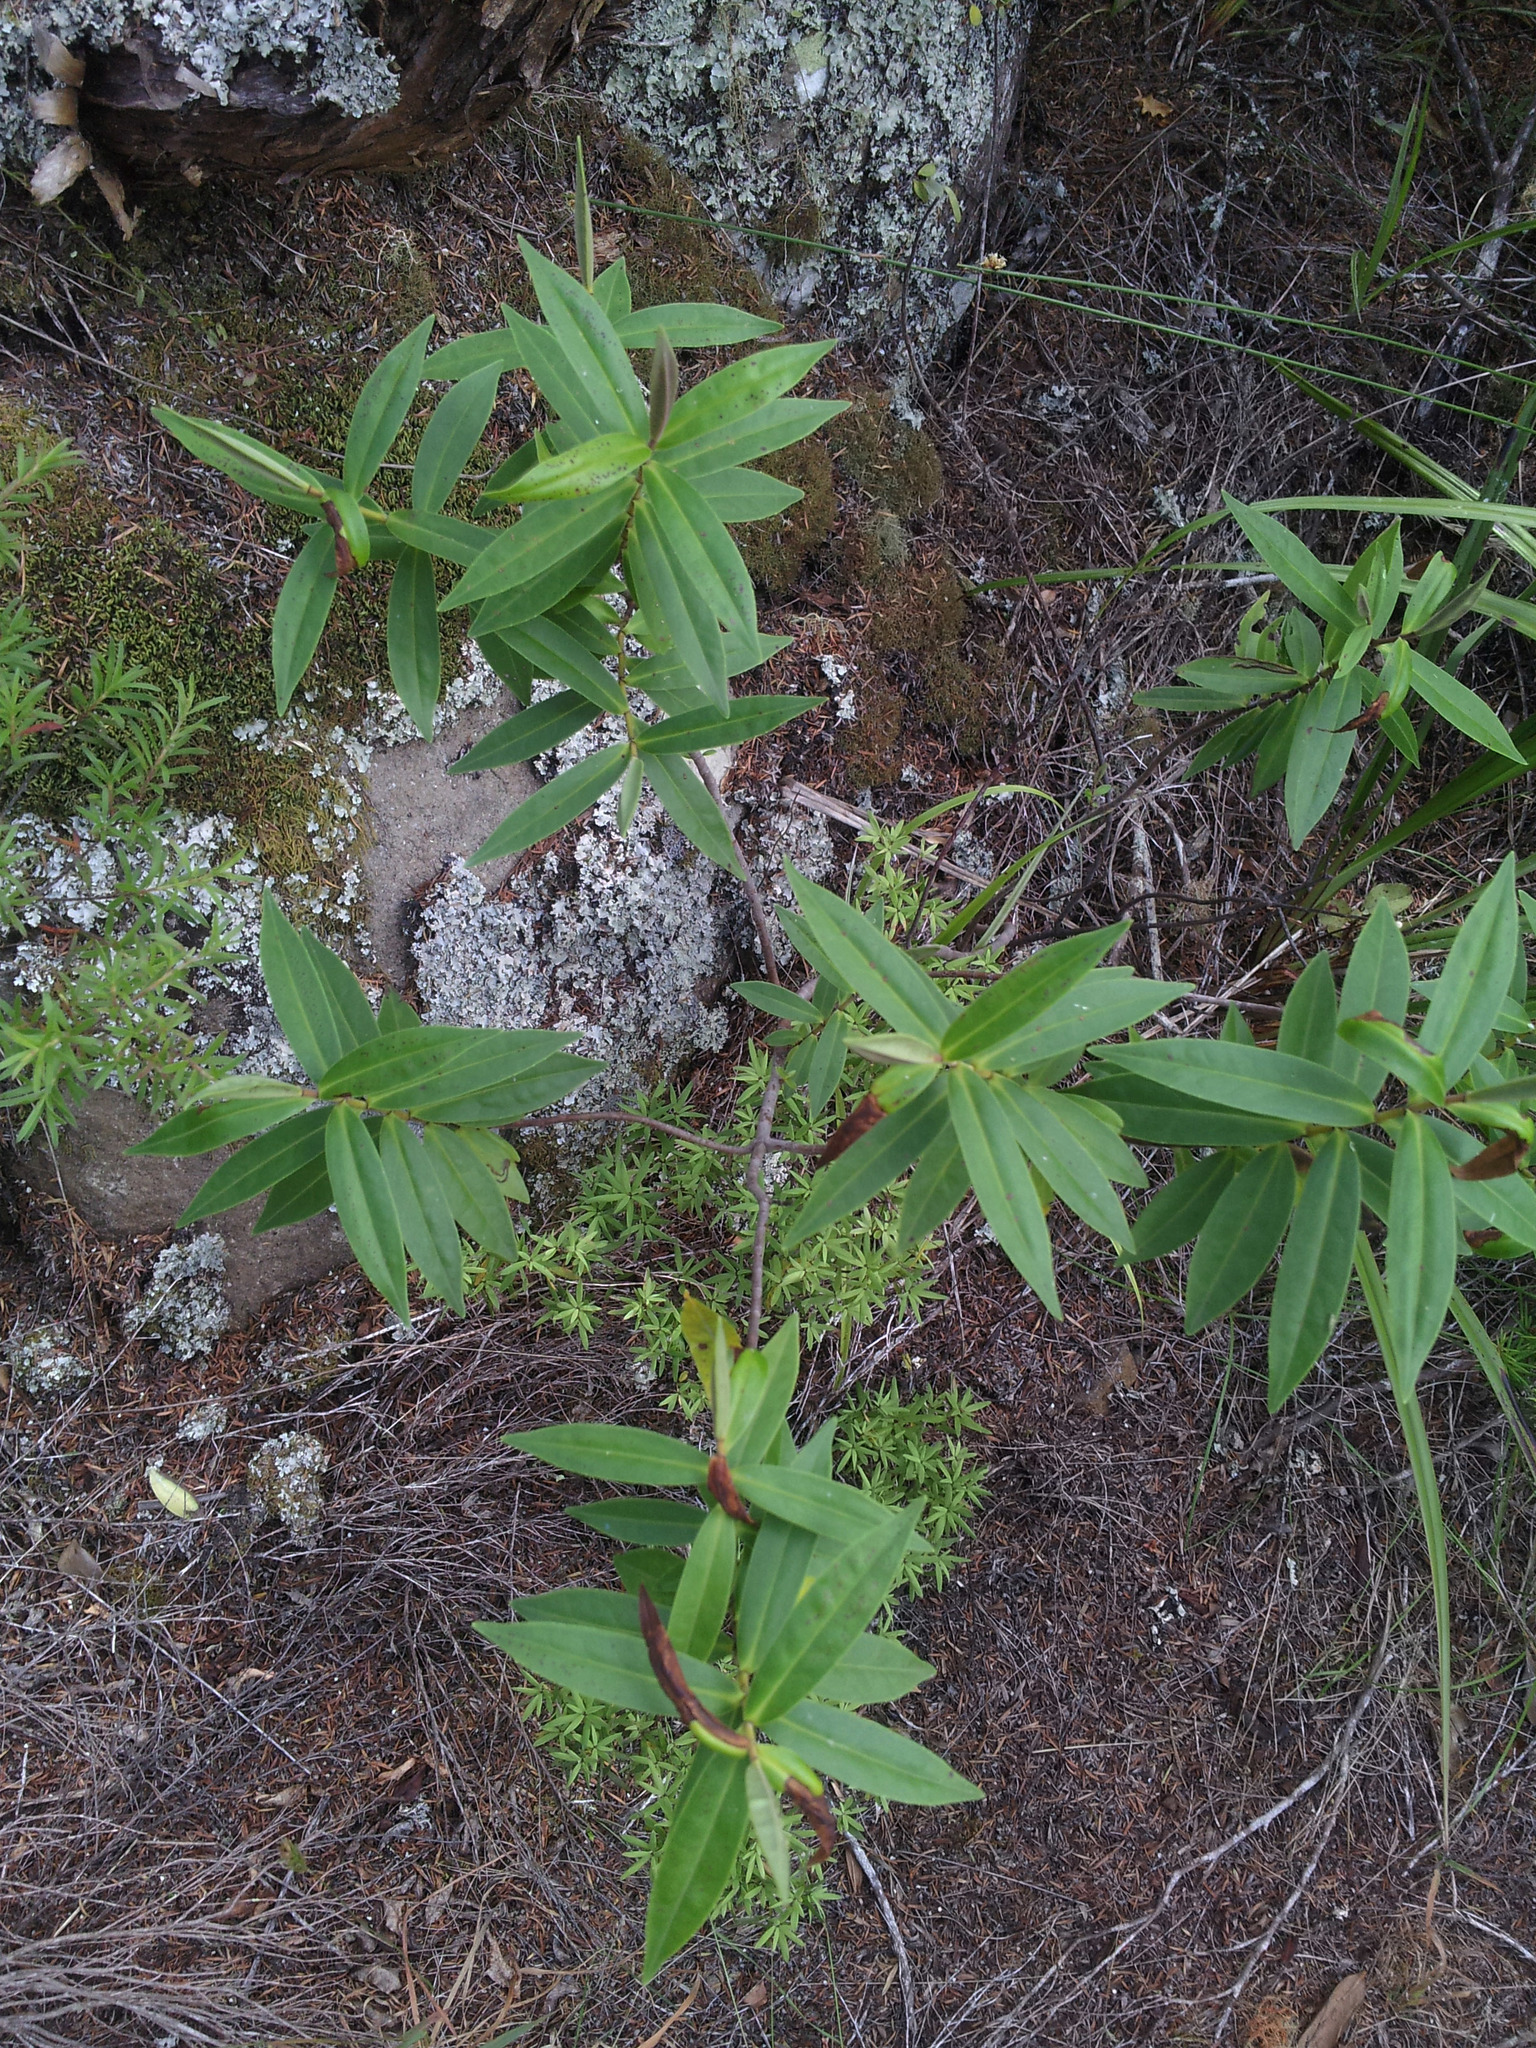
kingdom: Plantae
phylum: Tracheophyta
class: Magnoliopsida
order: Lamiales
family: Plantaginaceae
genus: Veronica
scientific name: Veronica stricta
